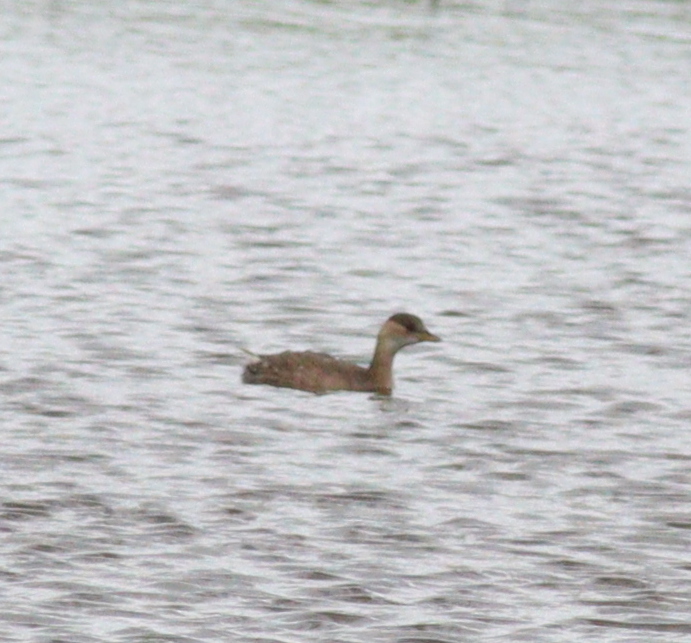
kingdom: Animalia
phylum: Chordata
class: Aves
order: Podicipediformes
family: Podicipedidae
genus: Tachybaptus
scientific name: Tachybaptus ruficollis
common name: Little grebe
